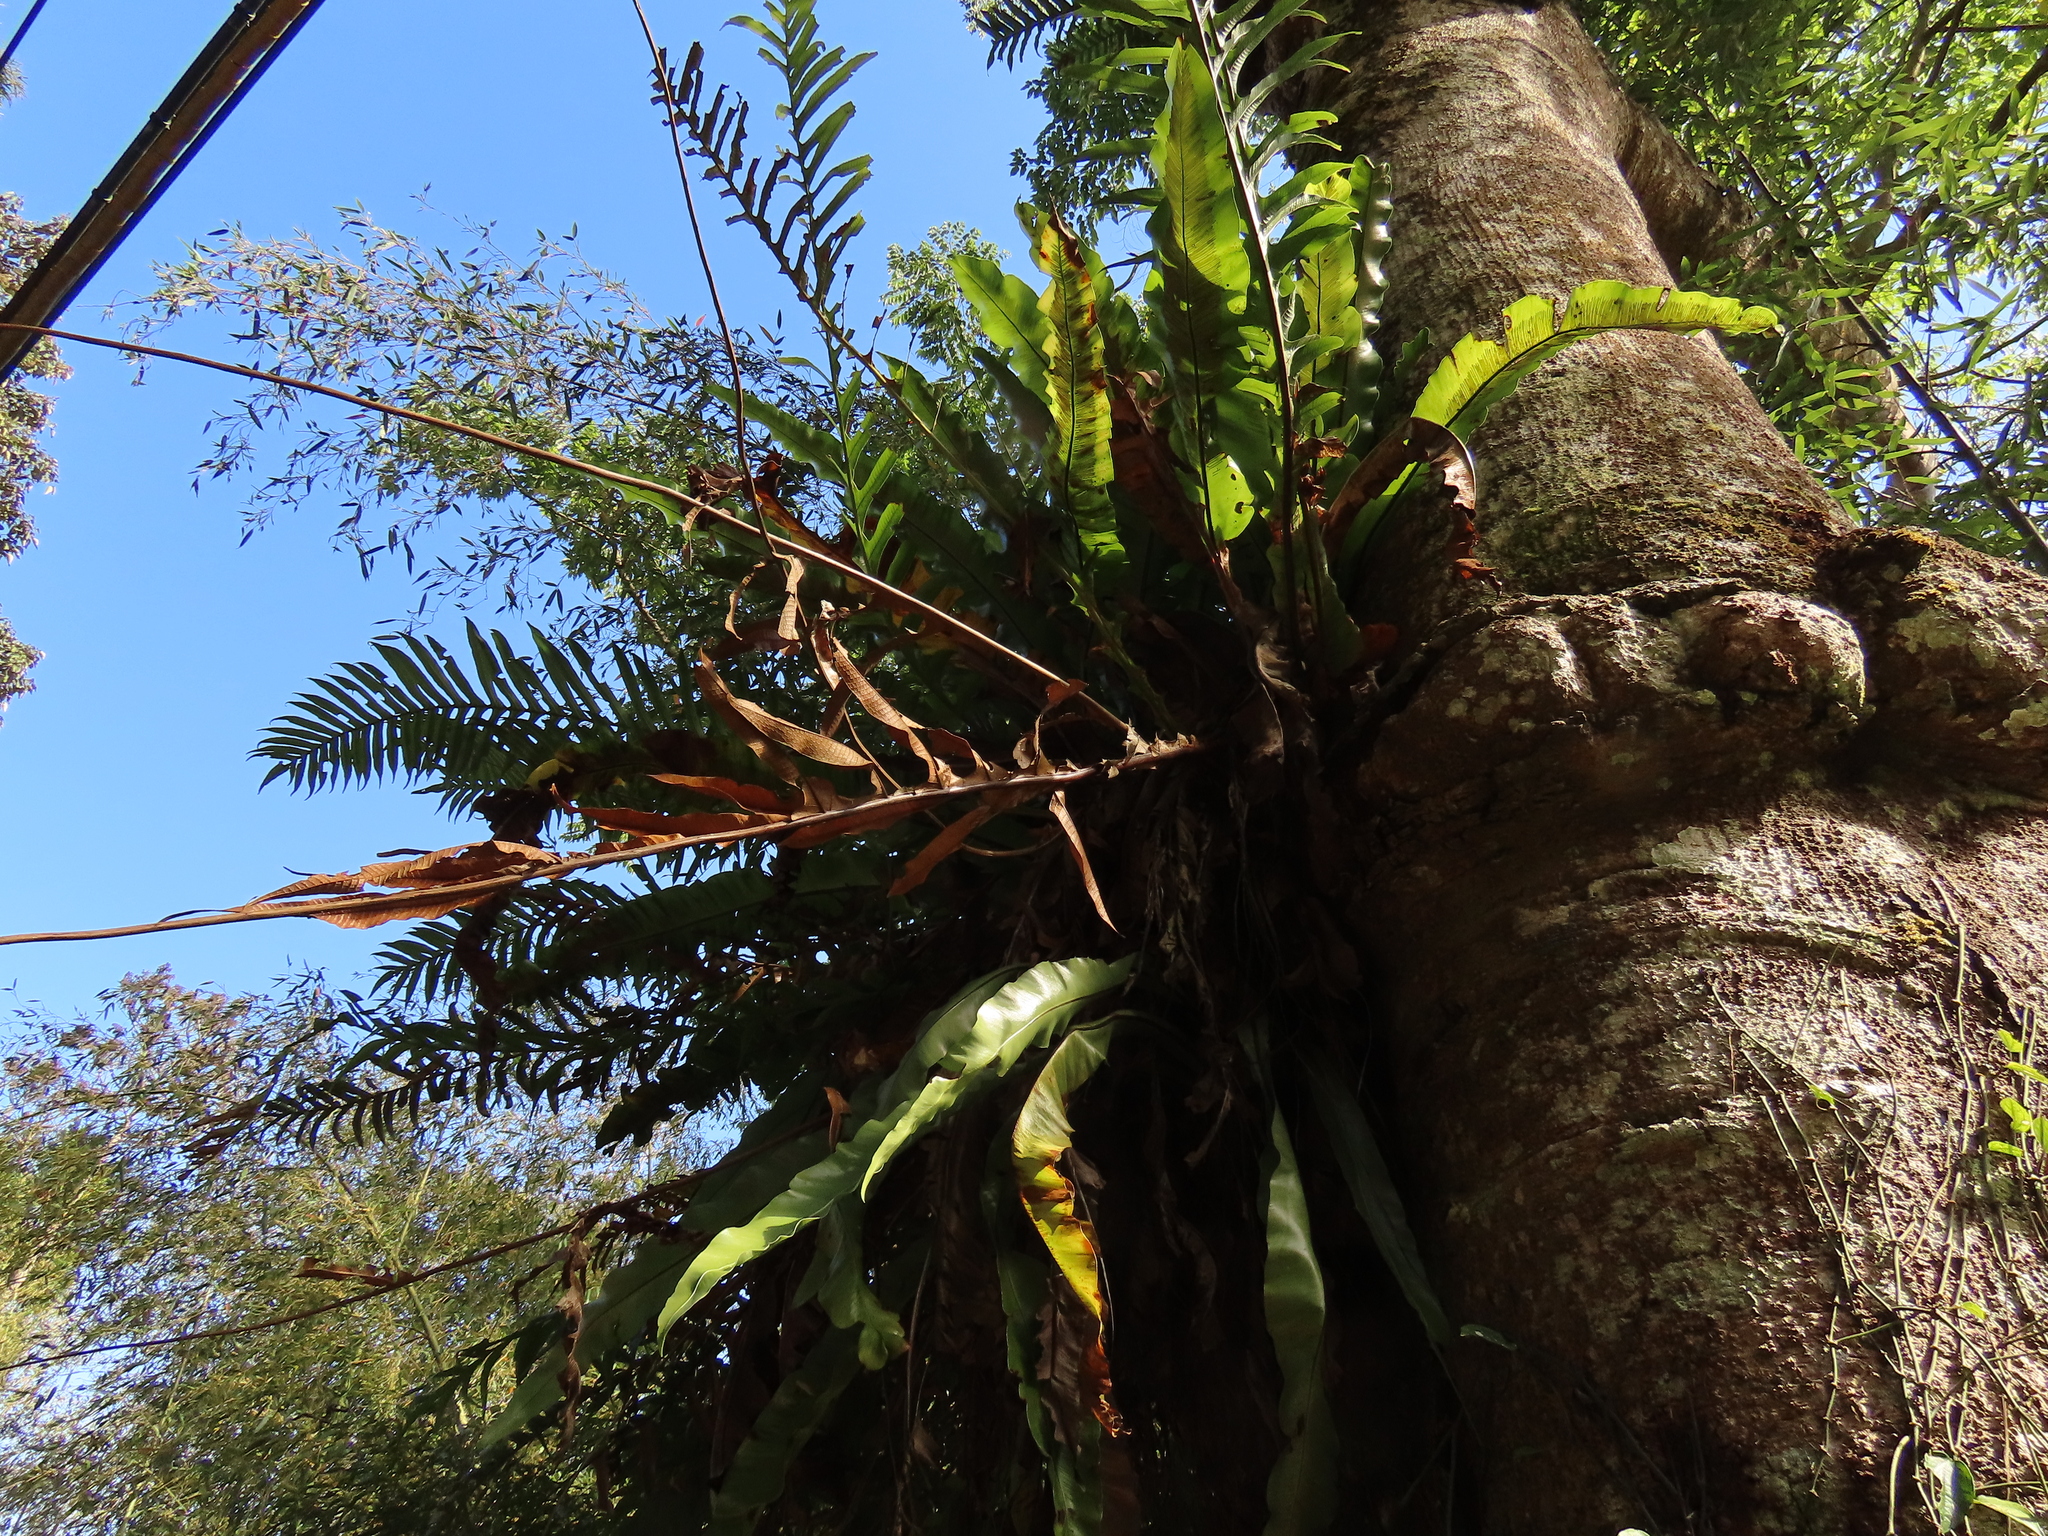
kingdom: Plantae
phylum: Tracheophyta
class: Polypodiopsida
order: Polypodiales
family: Aspleniaceae
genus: Asplenium
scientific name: Asplenium nidus
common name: Bird's-nest fern
